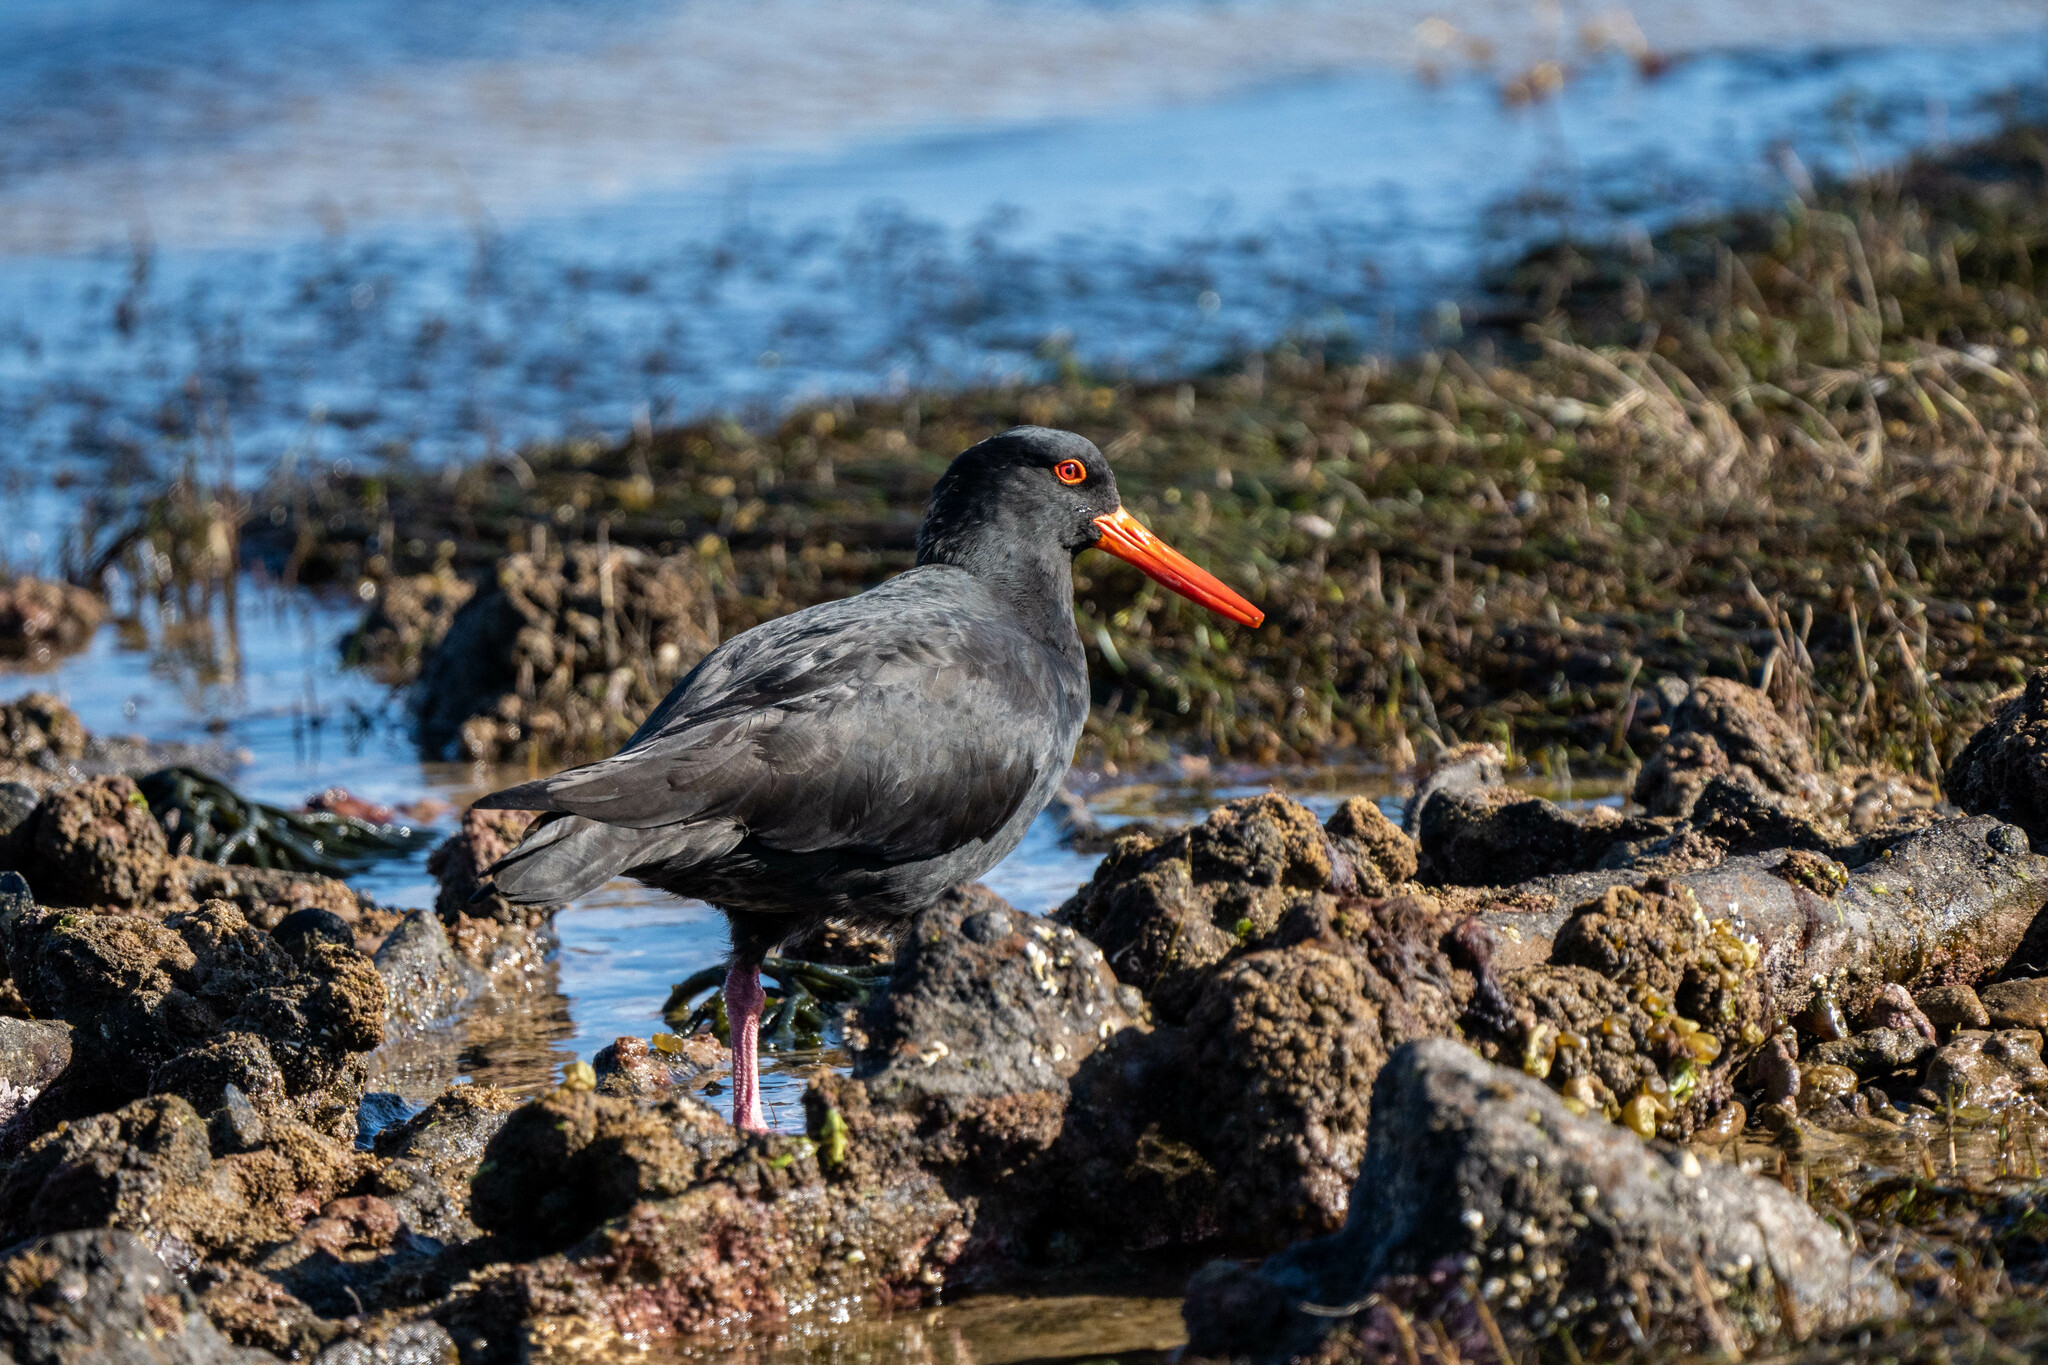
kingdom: Animalia
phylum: Chordata
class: Aves
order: Charadriiformes
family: Haematopodidae
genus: Haematopus
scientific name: Haematopus fuliginosus
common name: Sooty oystercatcher
